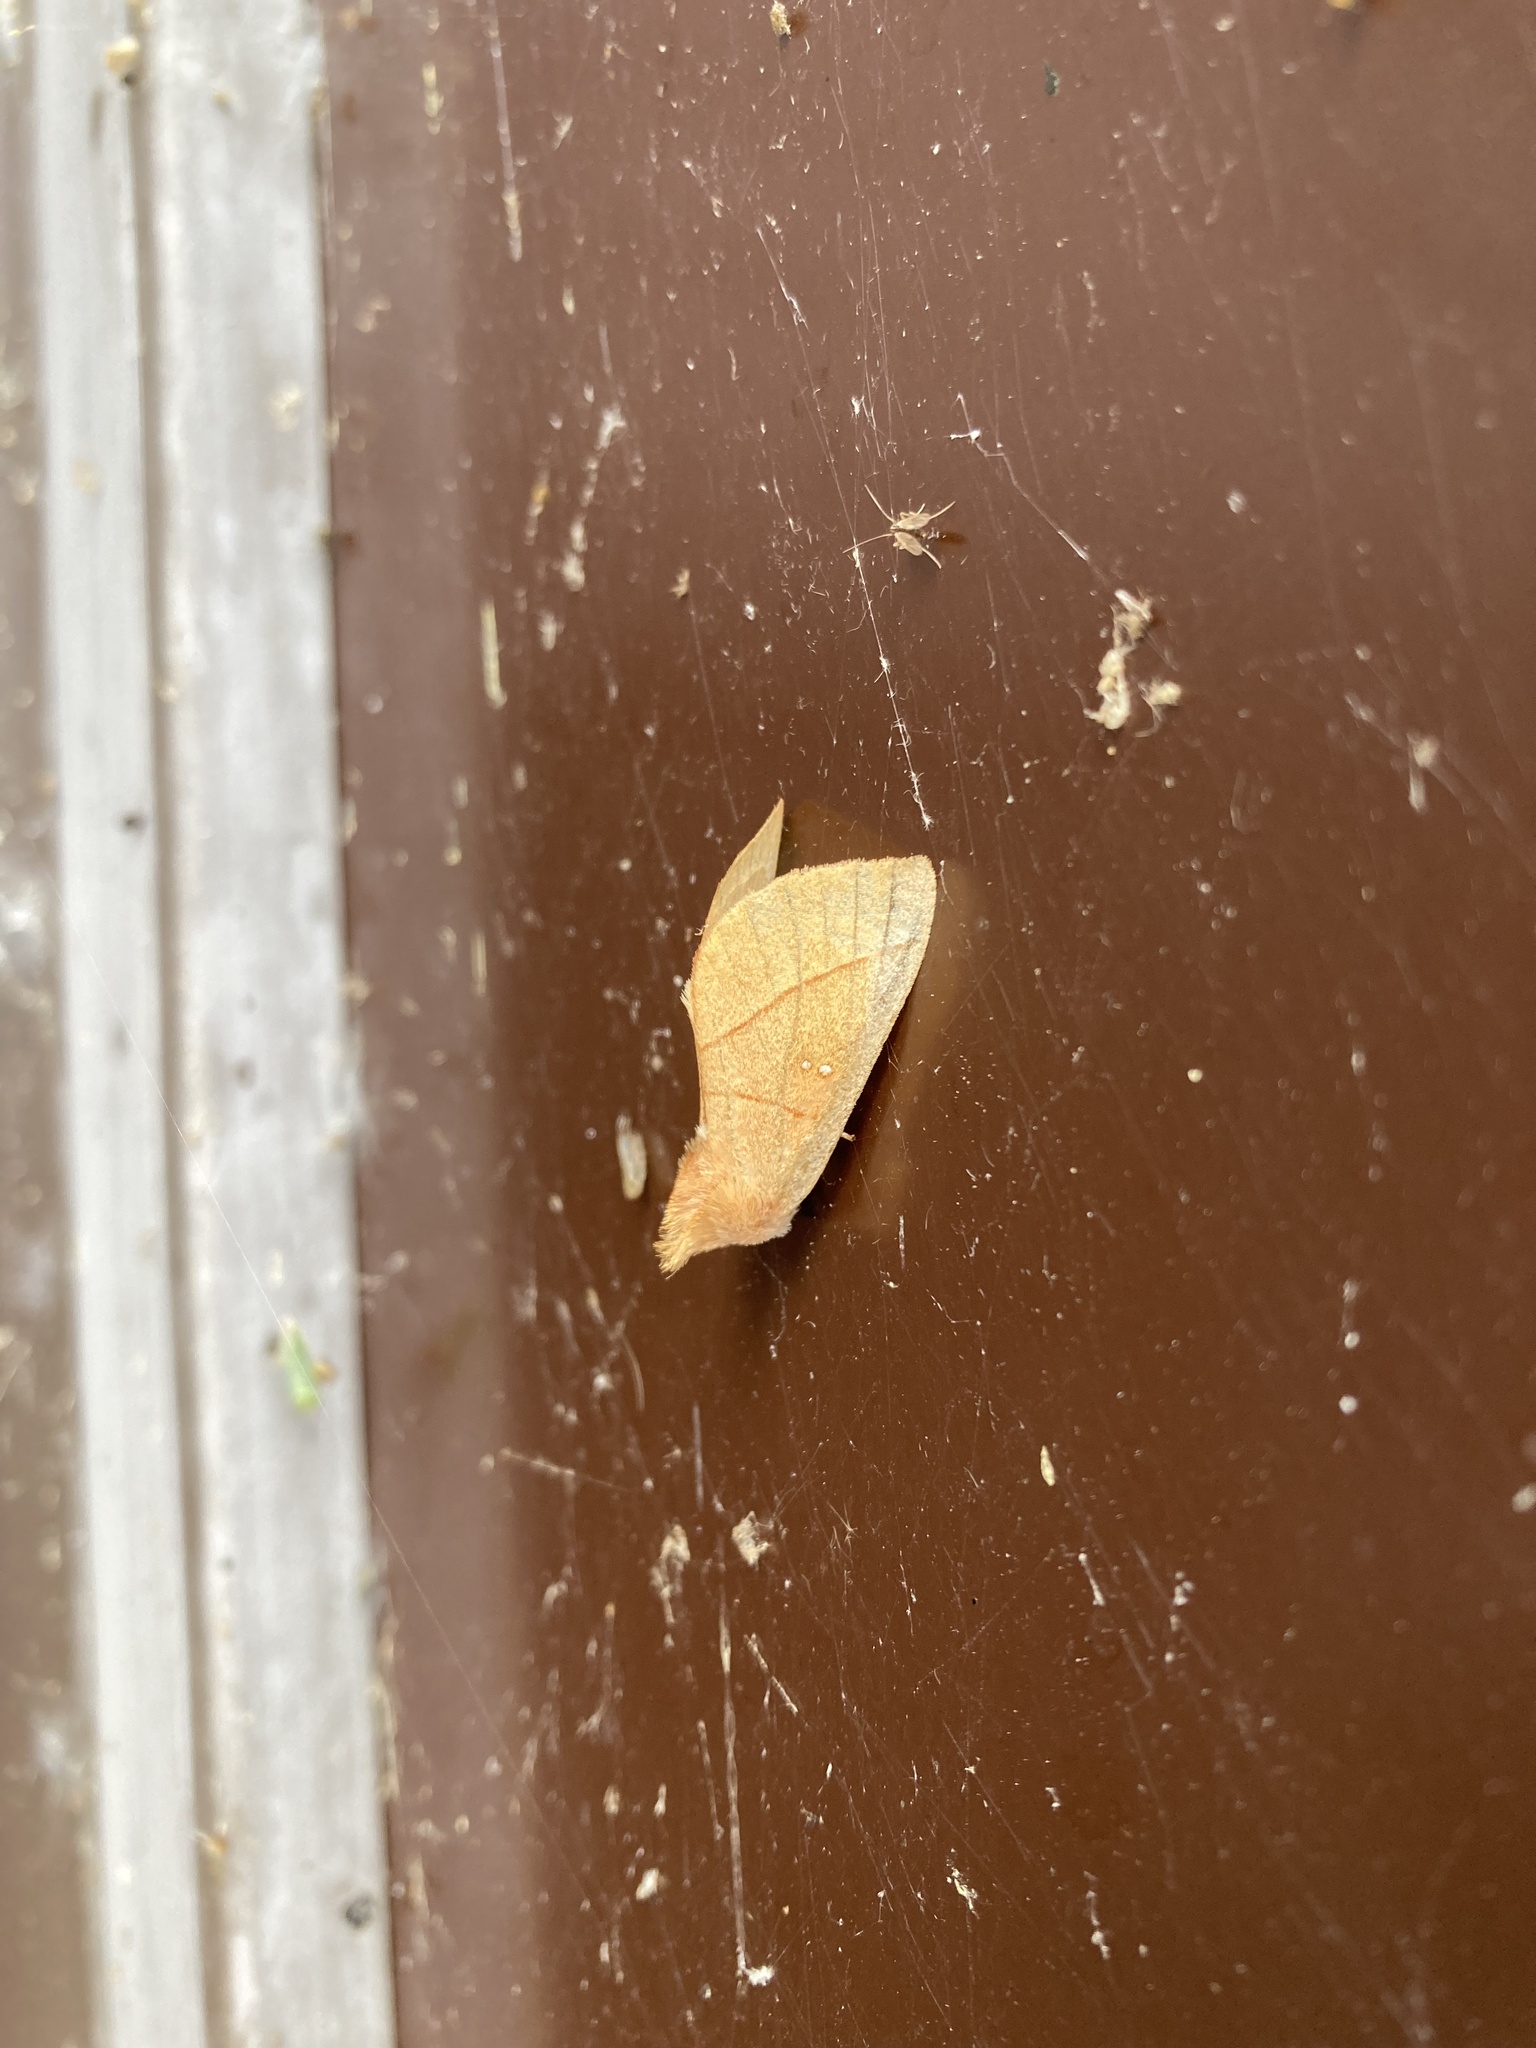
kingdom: Animalia
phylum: Arthropoda
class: Insecta
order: Lepidoptera
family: Notodontidae
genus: Nadata
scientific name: Nadata gibbosa
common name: White-dotted prominent
